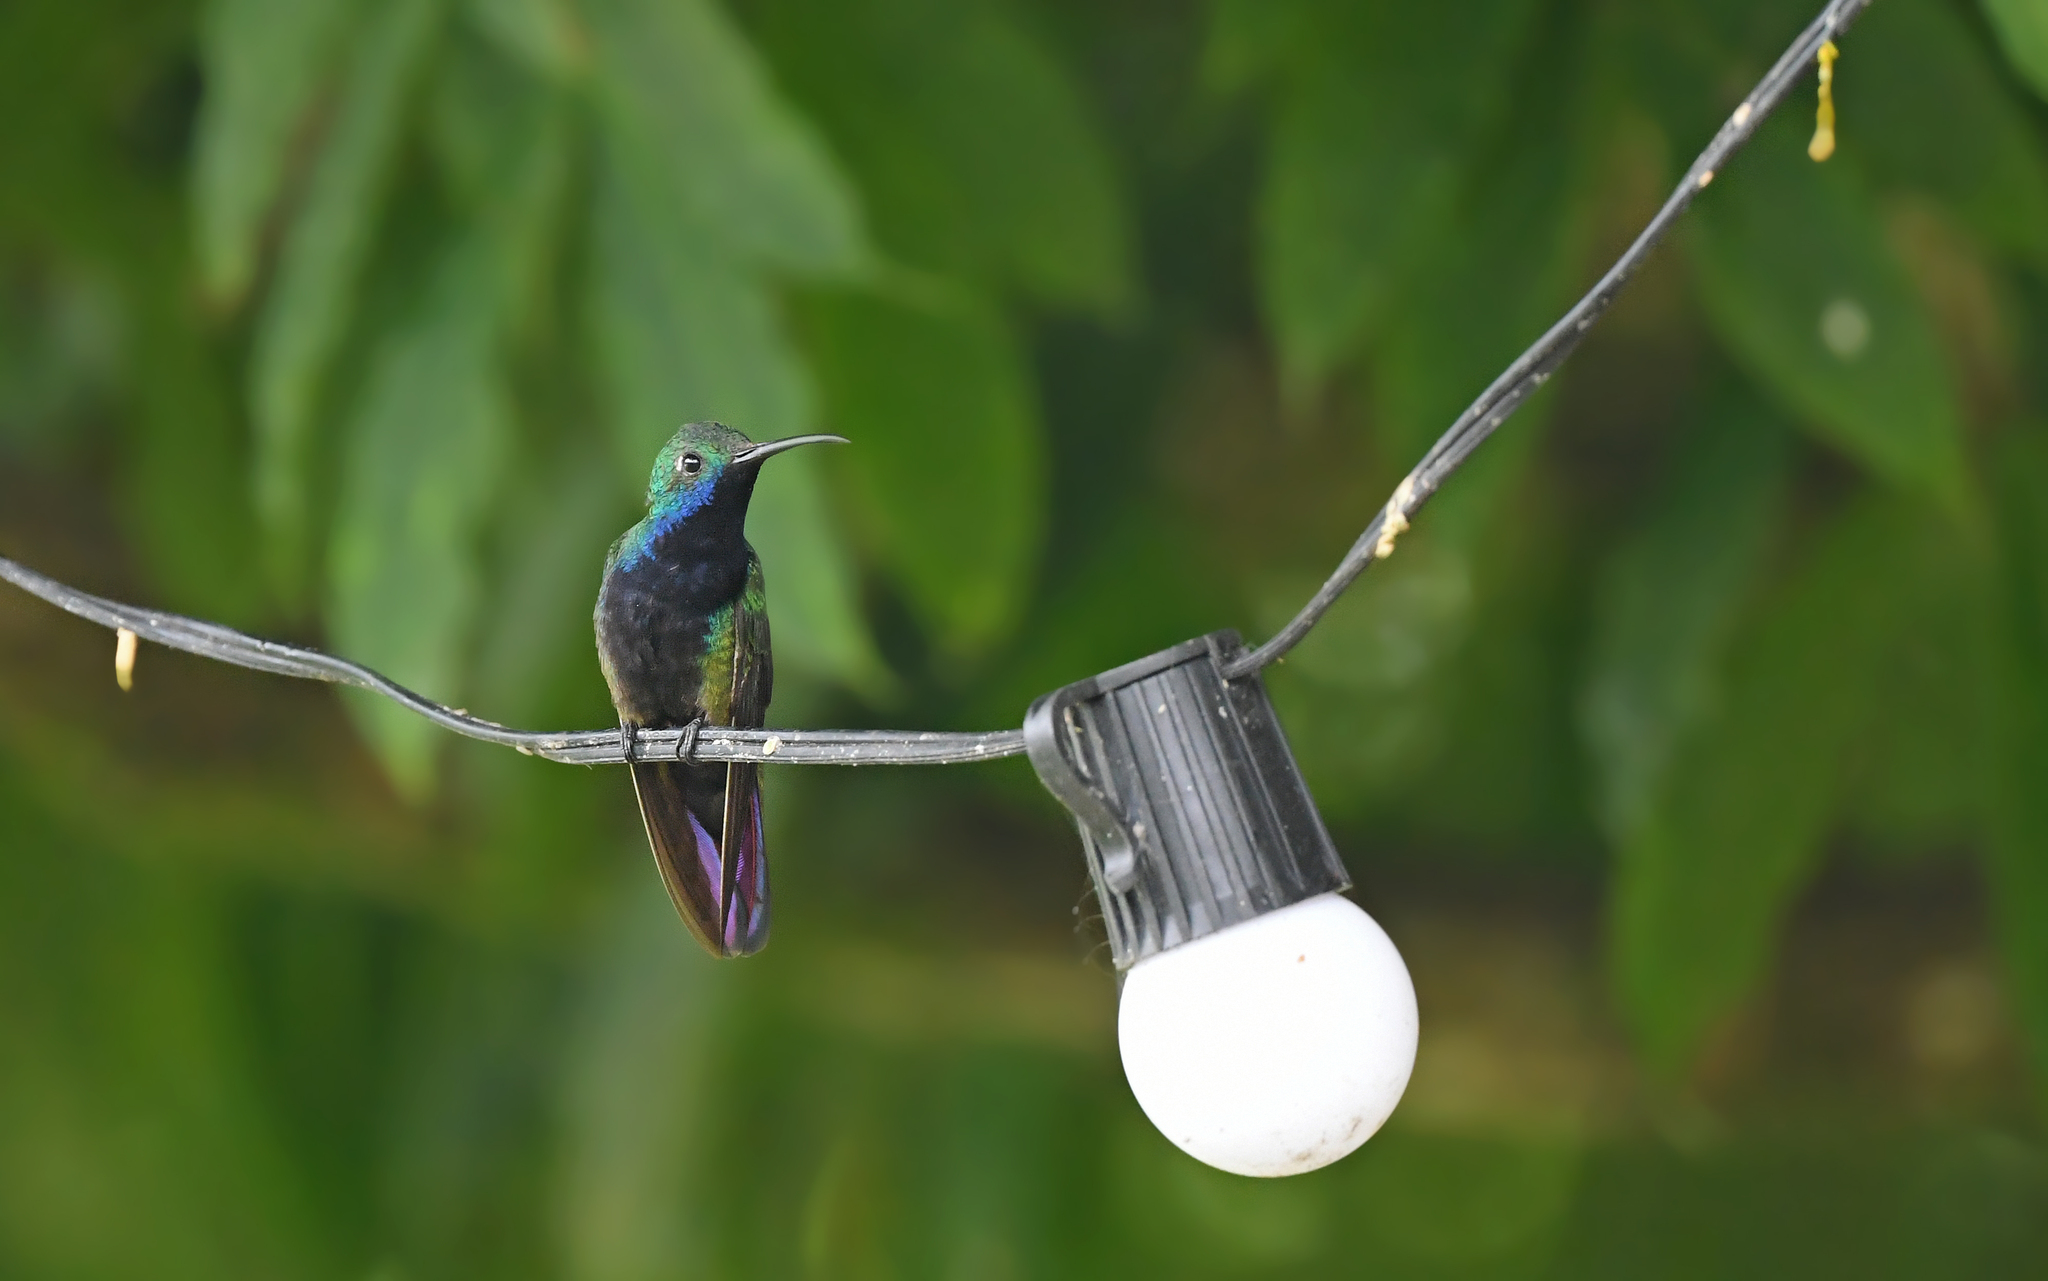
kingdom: Animalia
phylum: Chordata
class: Aves
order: Apodiformes
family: Trochilidae
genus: Anthracothorax
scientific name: Anthracothorax nigricollis
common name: Black-throated mango
